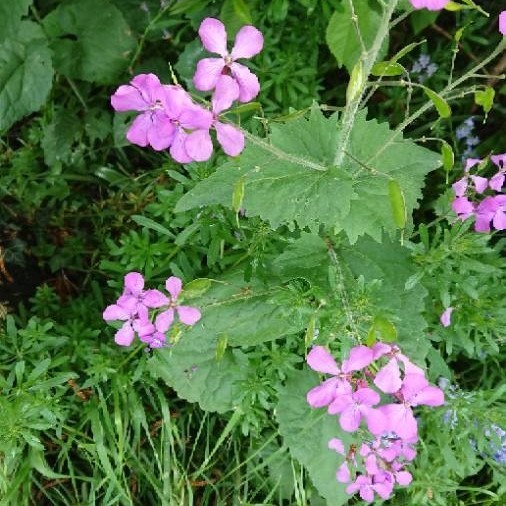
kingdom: Plantae
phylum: Tracheophyta
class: Magnoliopsida
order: Brassicales
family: Brassicaceae
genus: Lunaria
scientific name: Lunaria annua
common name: Honesty
